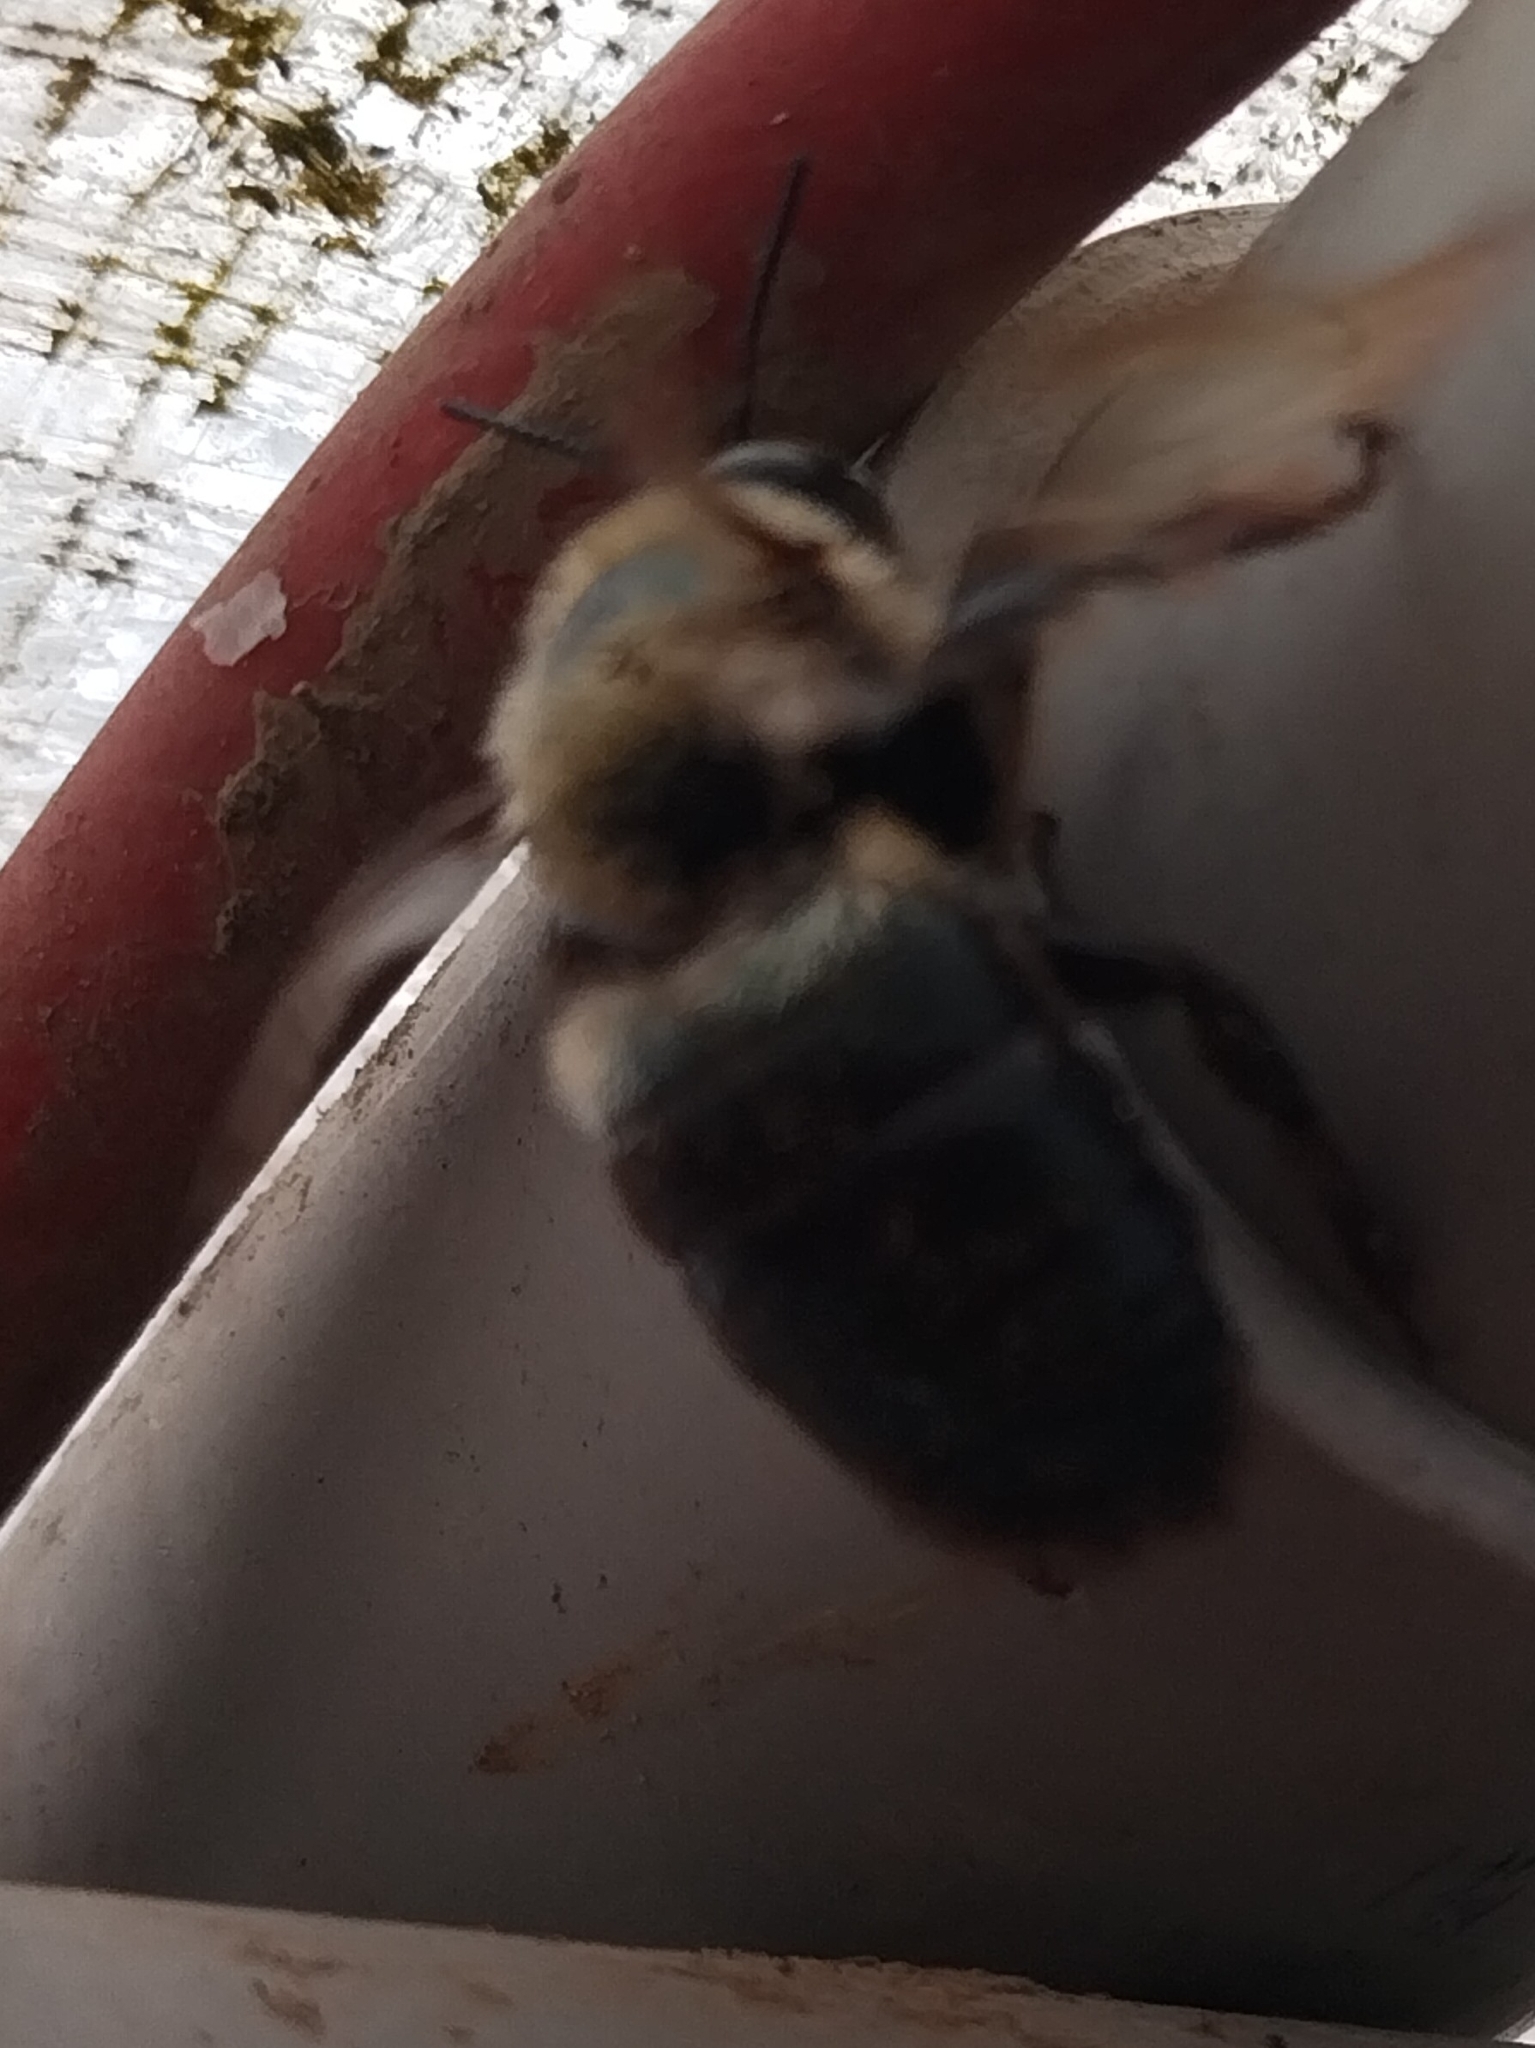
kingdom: Animalia
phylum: Arthropoda
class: Insecta
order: Hymenoptera
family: Apidae
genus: Xylocopa
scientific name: Xylocopa virginica
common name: Carpenter bee
